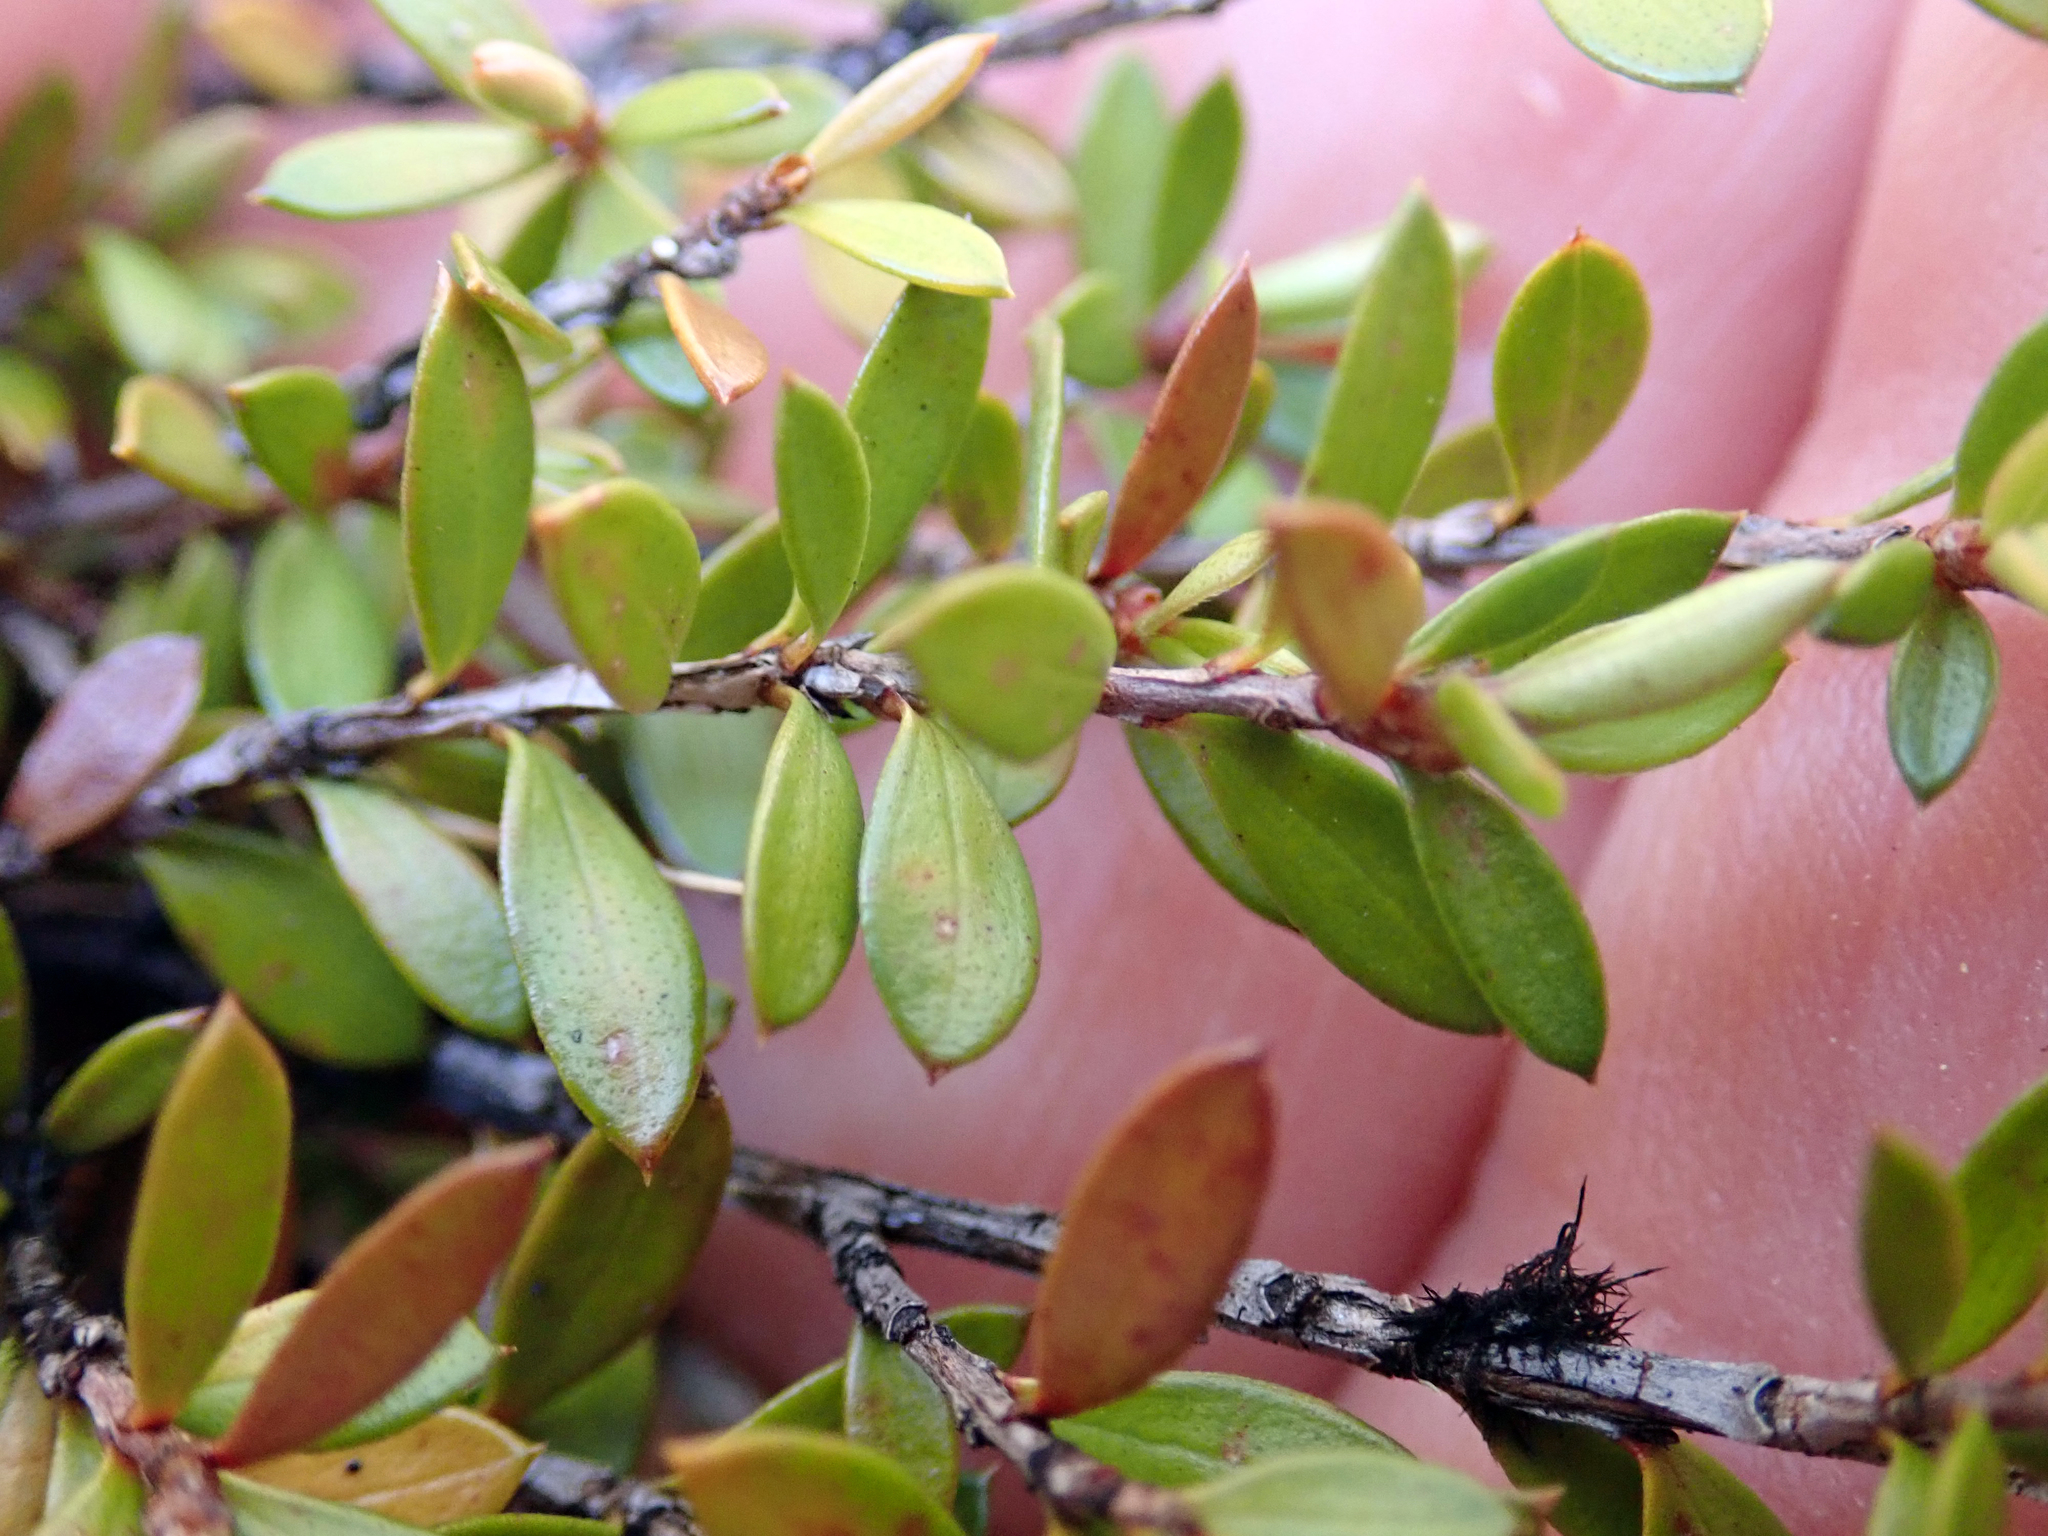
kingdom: Plantae
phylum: Tracheophyta
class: Magnoliopsida
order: Myrtales
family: Myrtaceae
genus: Leptospermum
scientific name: Leptospermum scoparium
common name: Broom tea-tree
